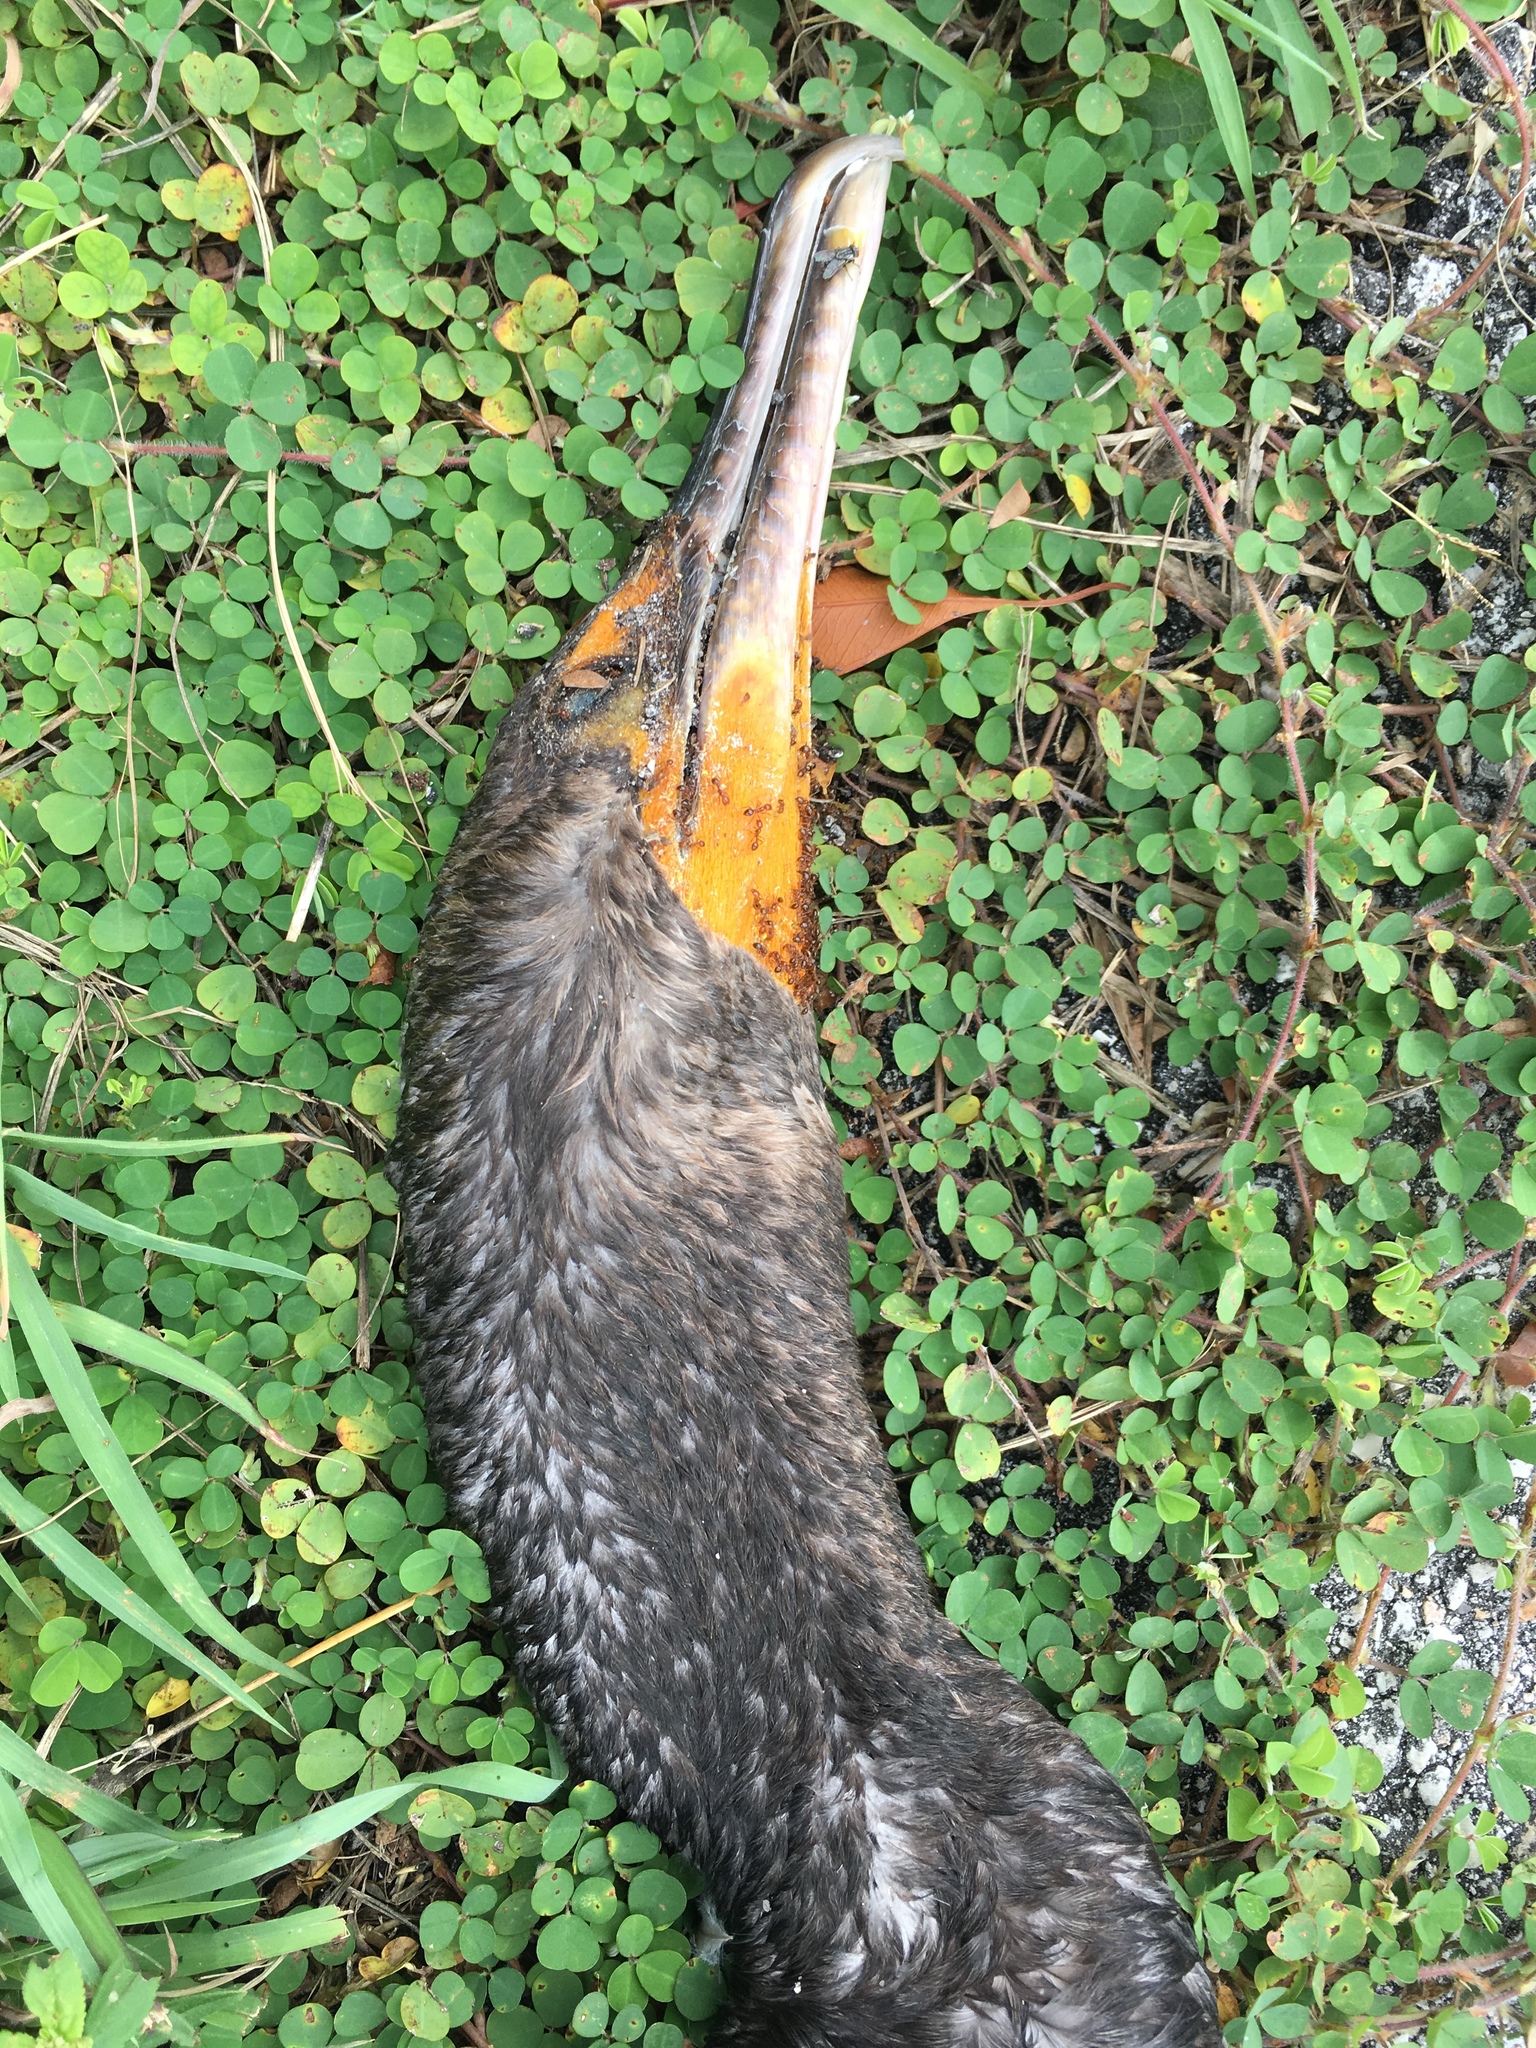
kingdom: Animalia
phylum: Chordata
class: Aves
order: Suliformes
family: Phalacrocoracidae
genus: Phalacrocorax
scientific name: Phalacrocorax auritus
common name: Double-crested cormorant
